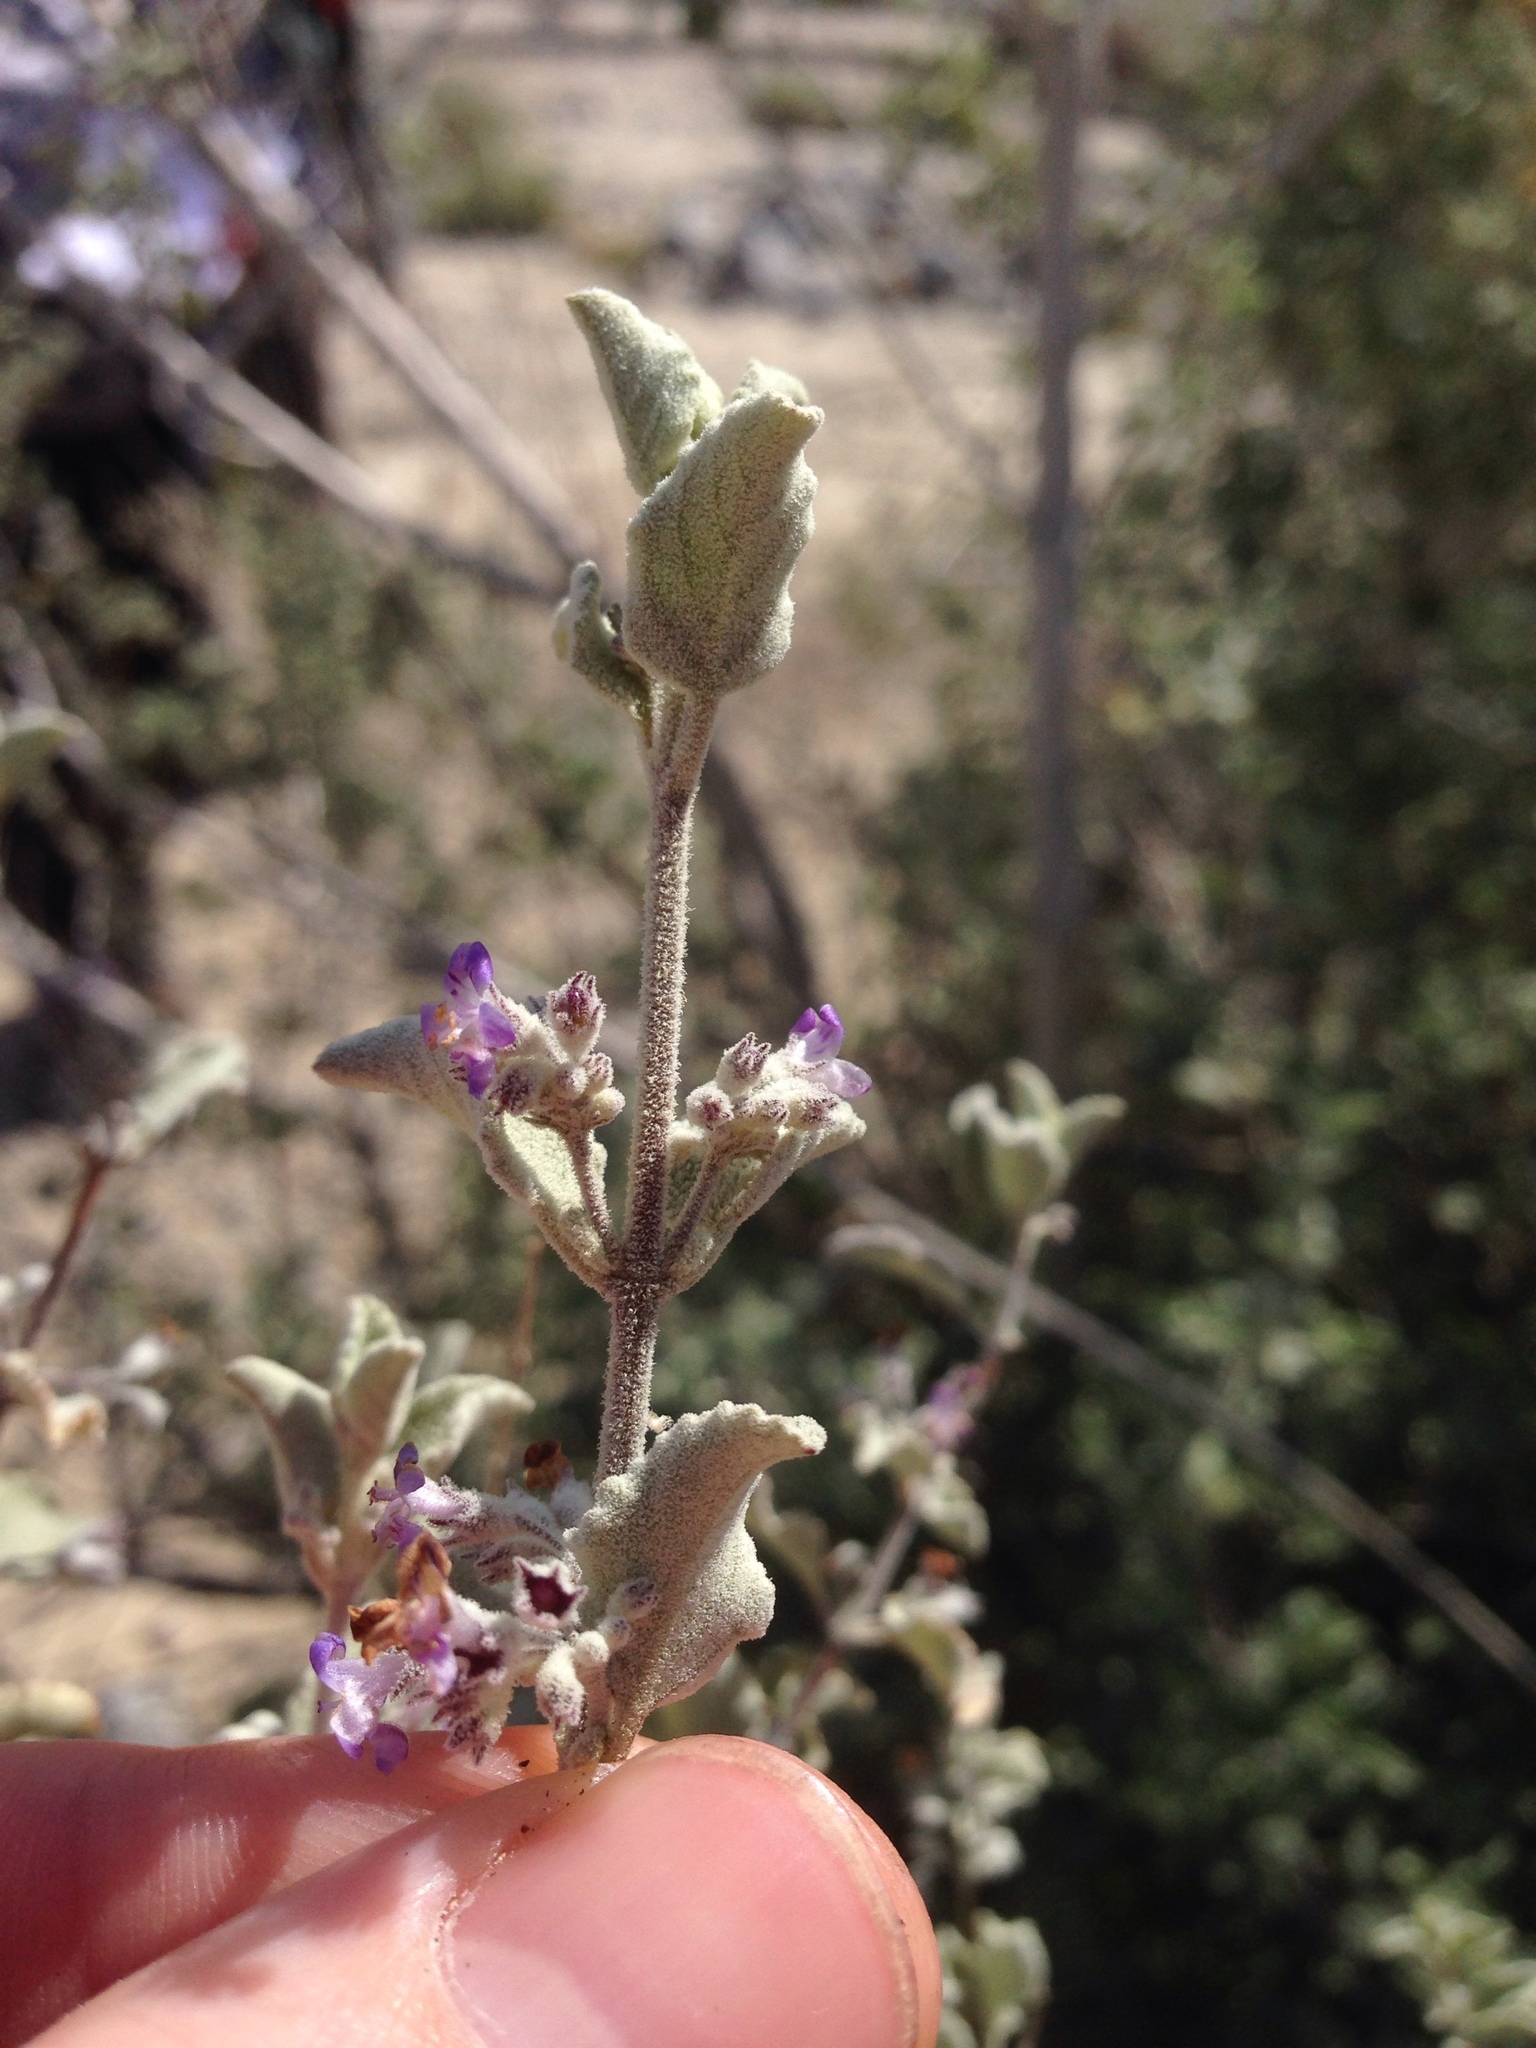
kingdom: Plantae
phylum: Tracheophyta
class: Magnoliopsida
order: Lamiales
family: Lamiaceae
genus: Condea
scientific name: Condea emoryi
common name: Chia
